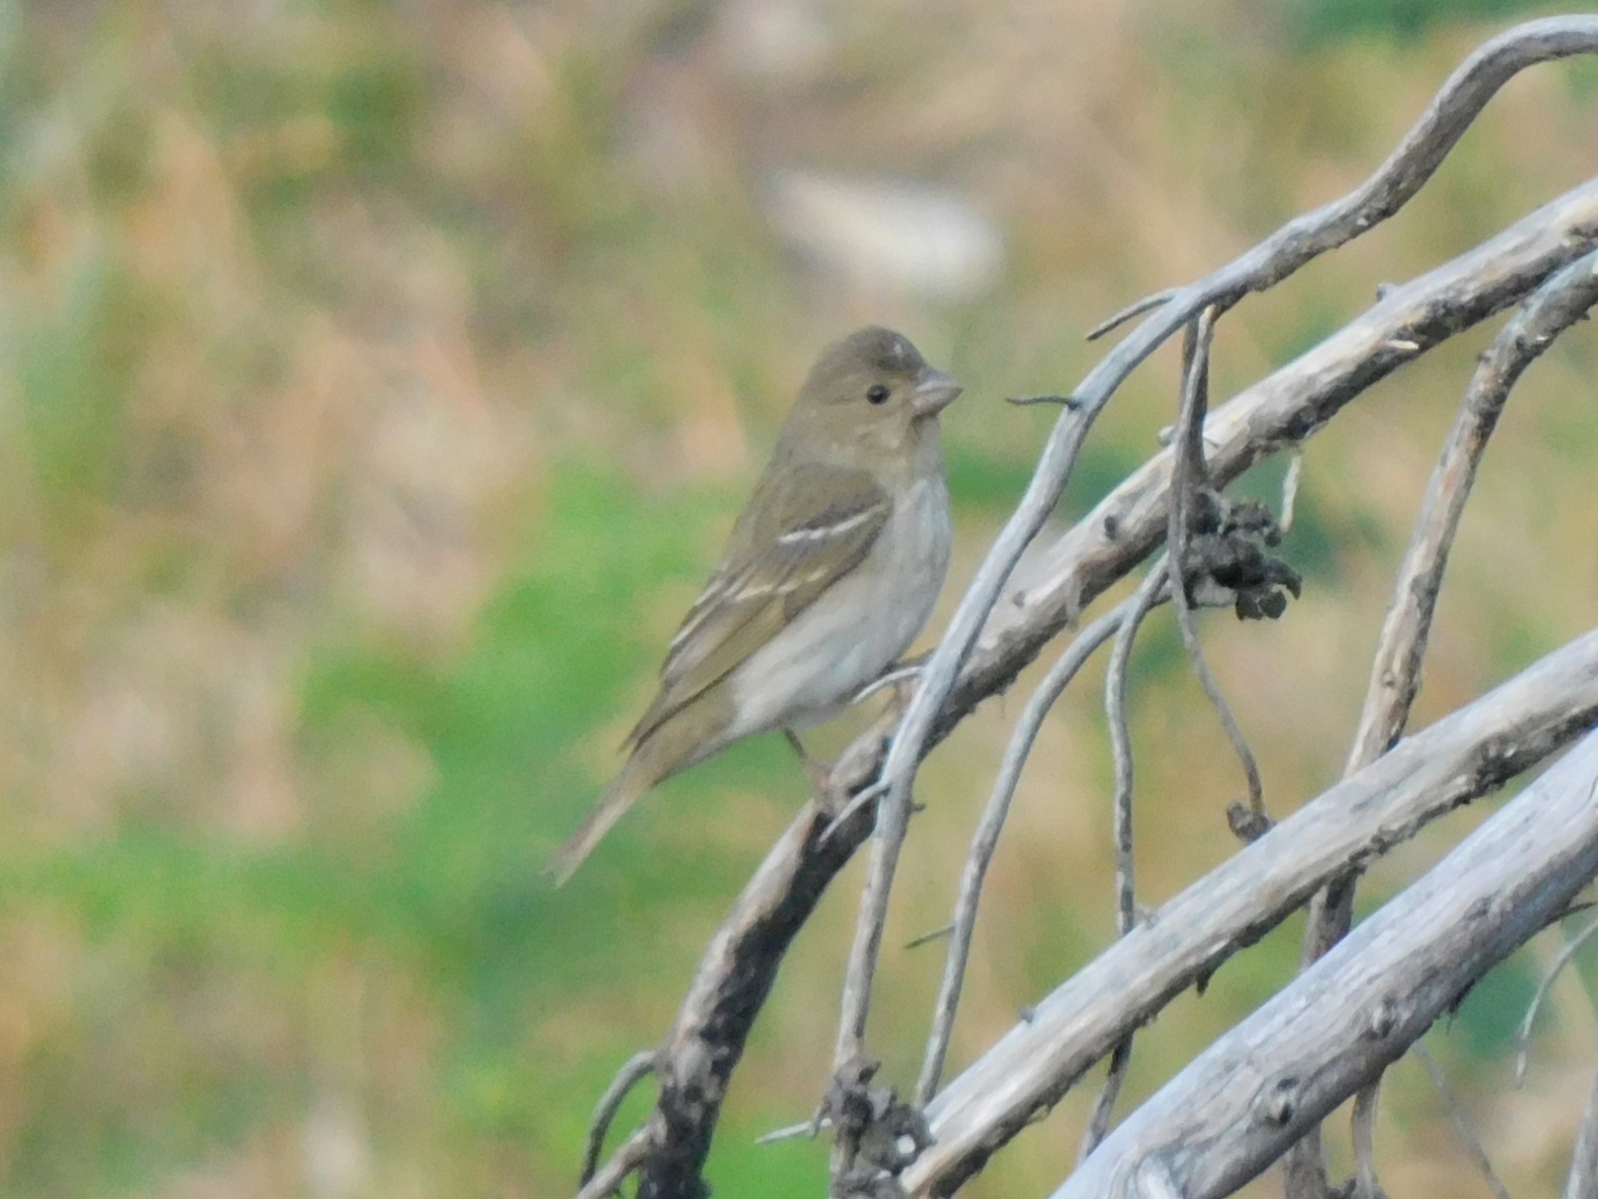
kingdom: Animalia
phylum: Chordata
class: Aves
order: Passeriformes
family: Fringillidae
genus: Carpodacus
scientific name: Carpodacus erythrinus
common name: Common rosefinch
